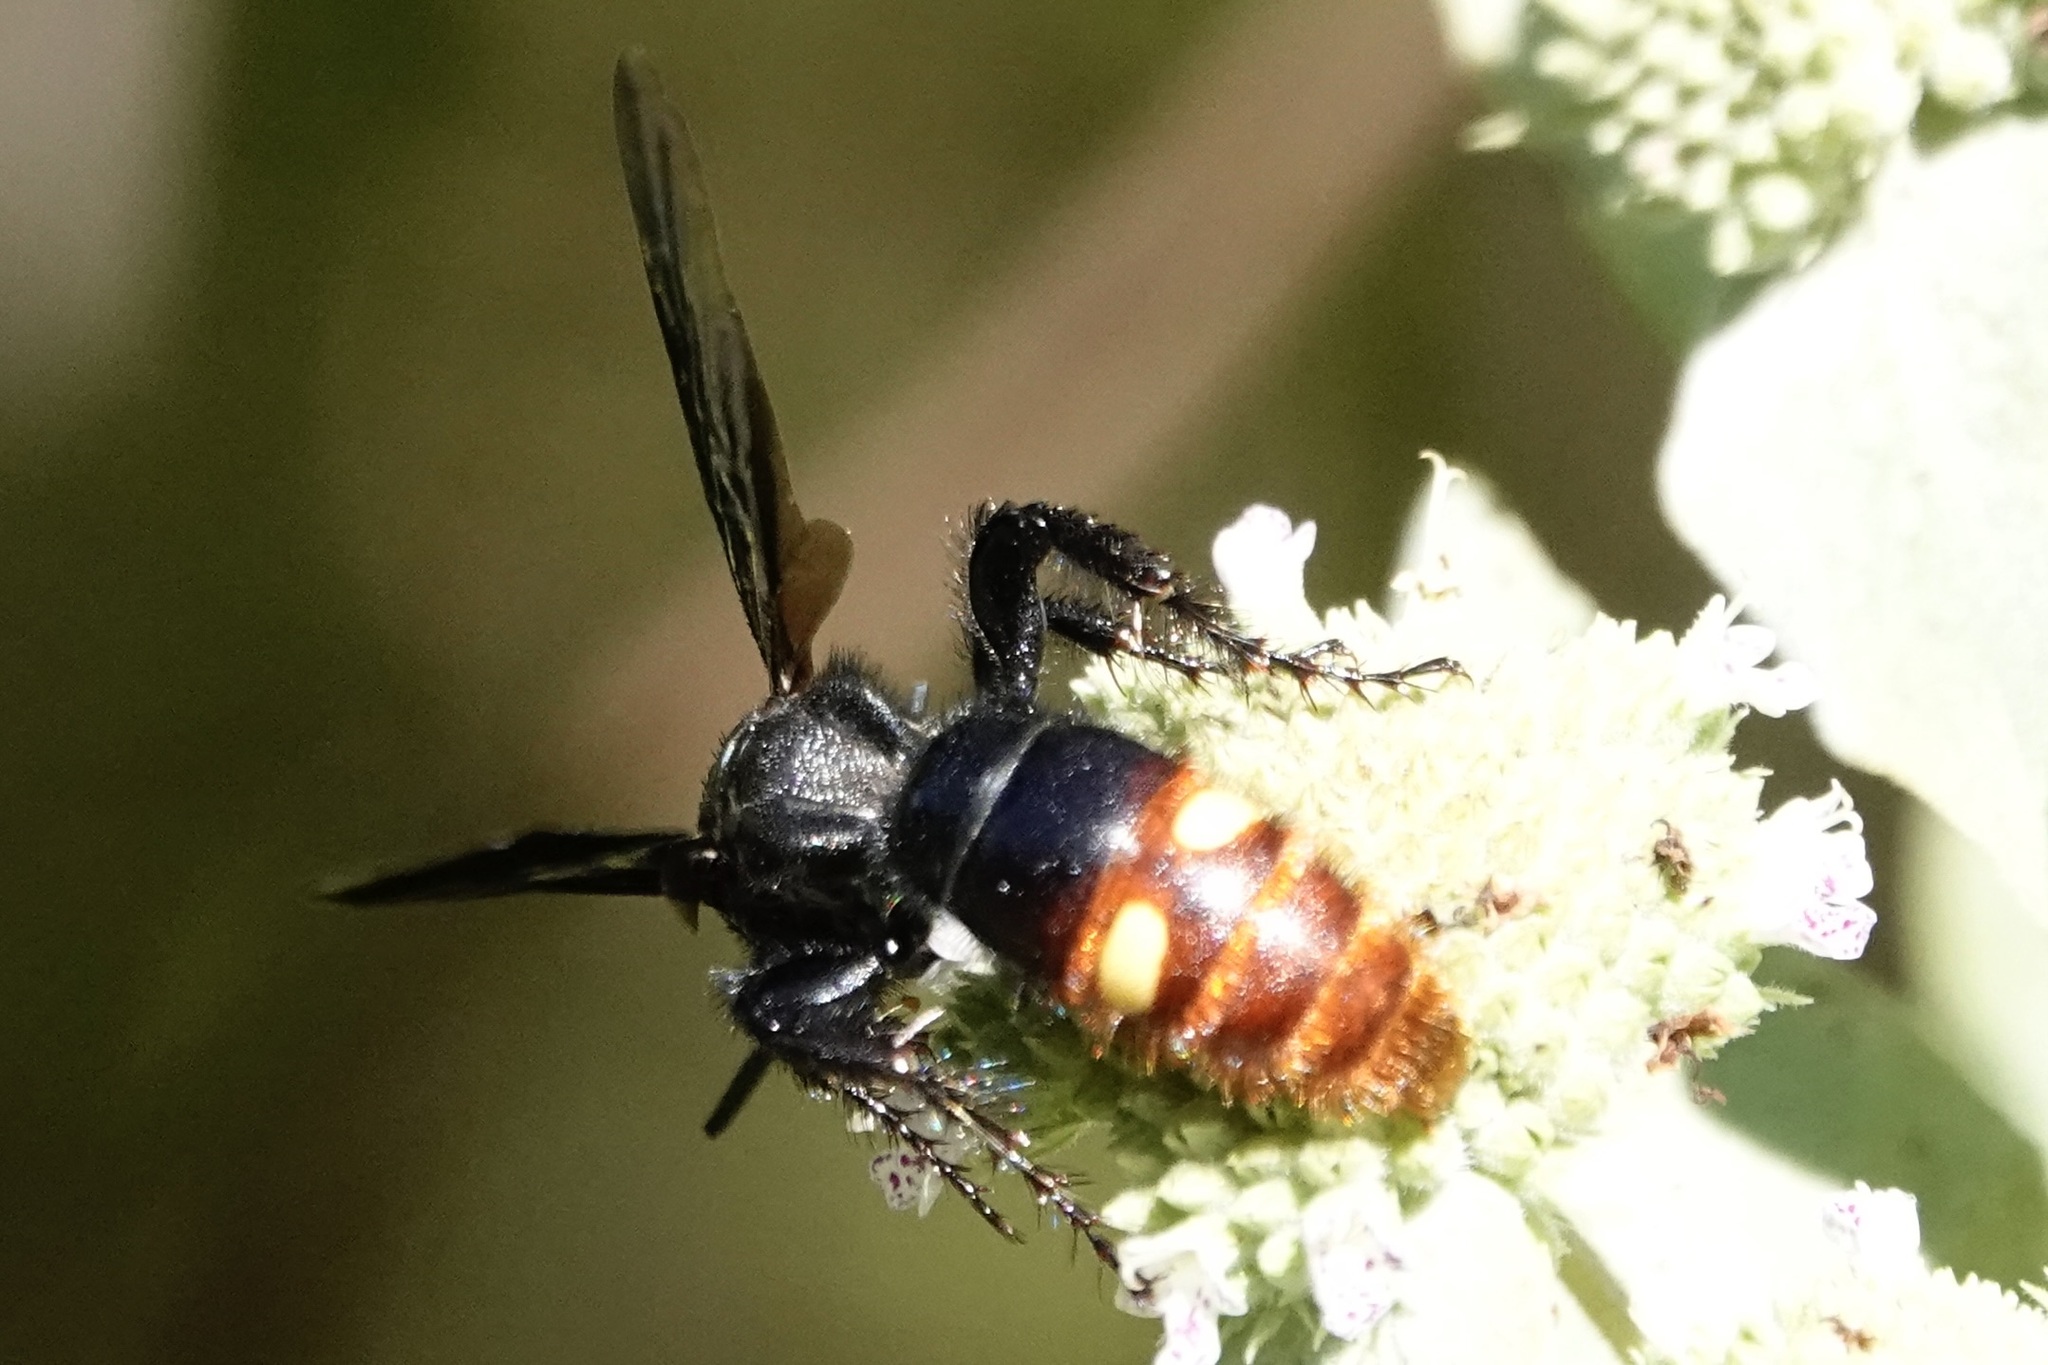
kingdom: Animalia
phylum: Arthropoda
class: Insecta
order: Hymenoptera
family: Scoliidae
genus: Scolia
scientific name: Scolia dubia
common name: Blue-winged scoliid wasp
